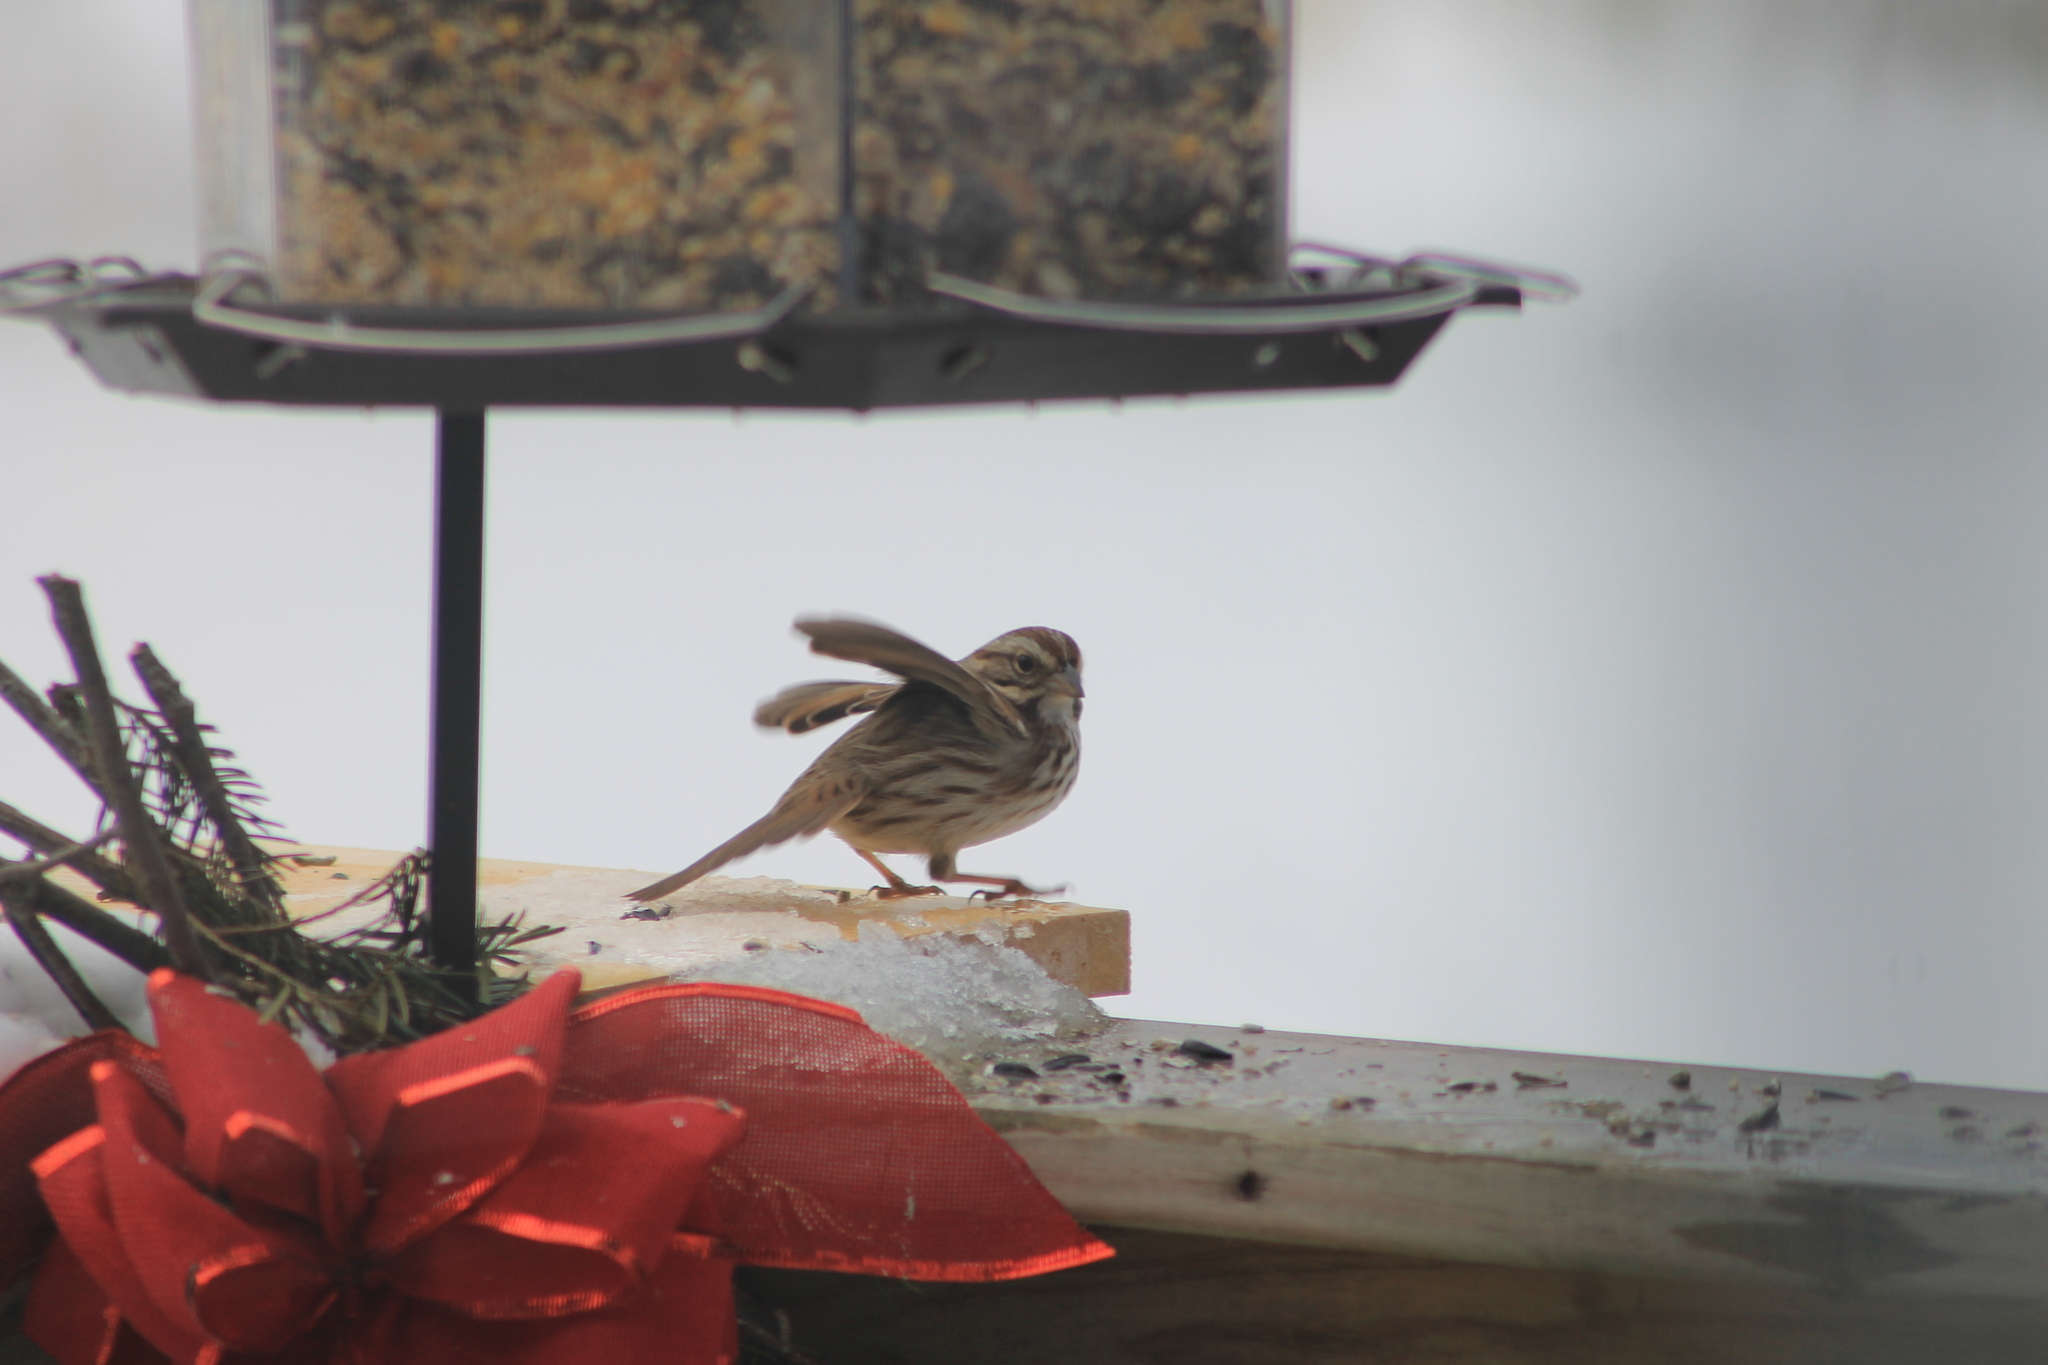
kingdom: Animalia
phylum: Chordata
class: Aves
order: Passeriformes
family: Passerellidae
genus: Melospiza
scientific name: Melospiza melodia
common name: Song sparrow
